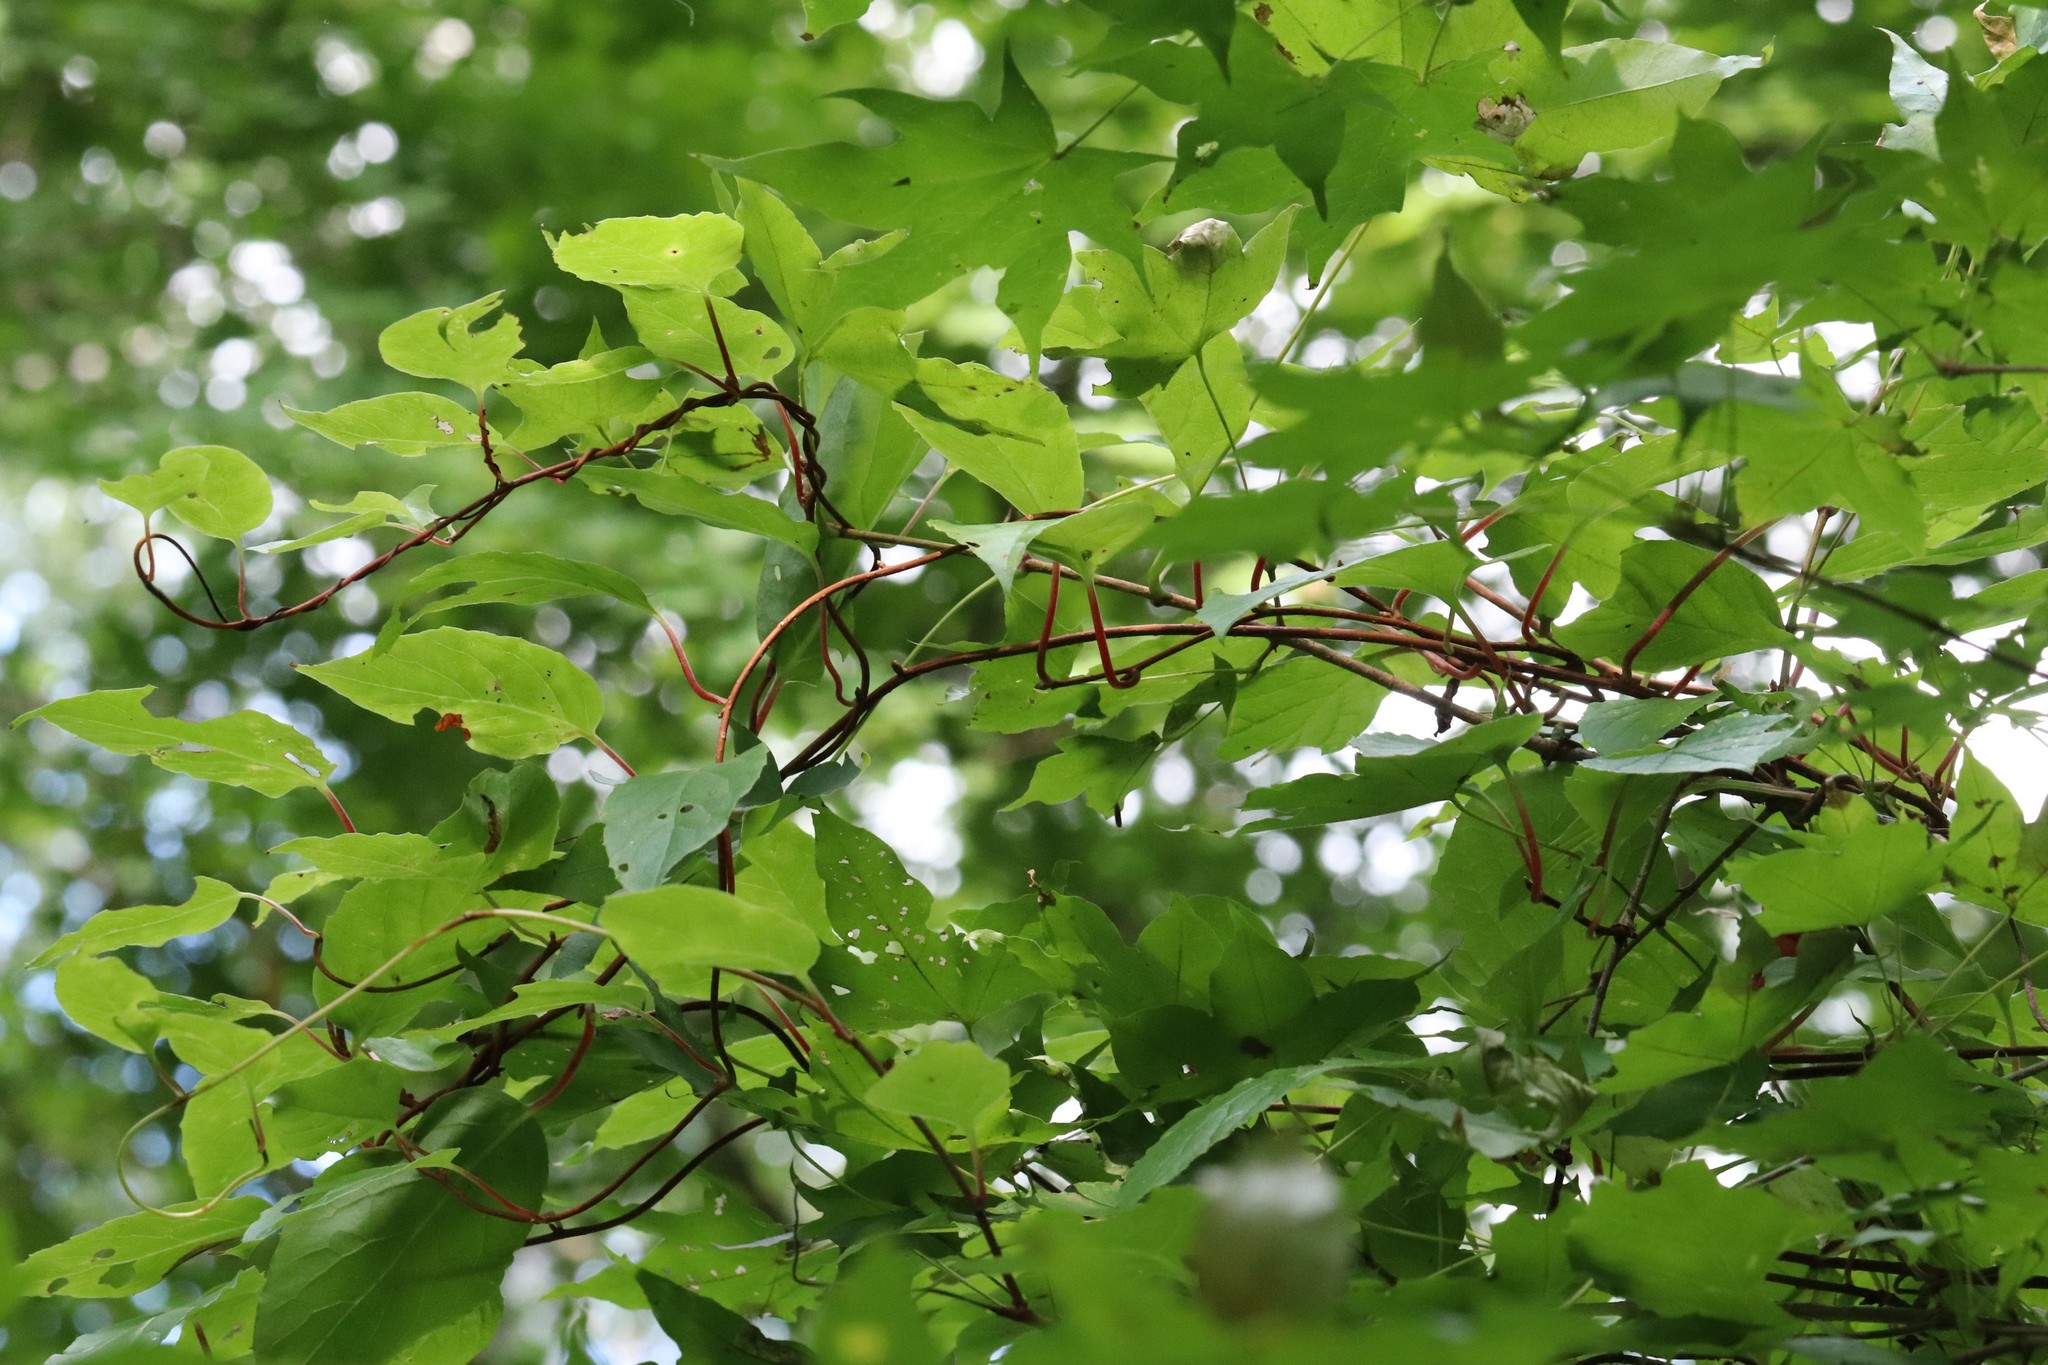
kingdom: Plantae
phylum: Tracheophyta
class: Magnoliopsida
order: Austrobaileyales
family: Schisandraceae
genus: Schisandra
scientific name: Schisandra chinensis
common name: Magnolia-vine
